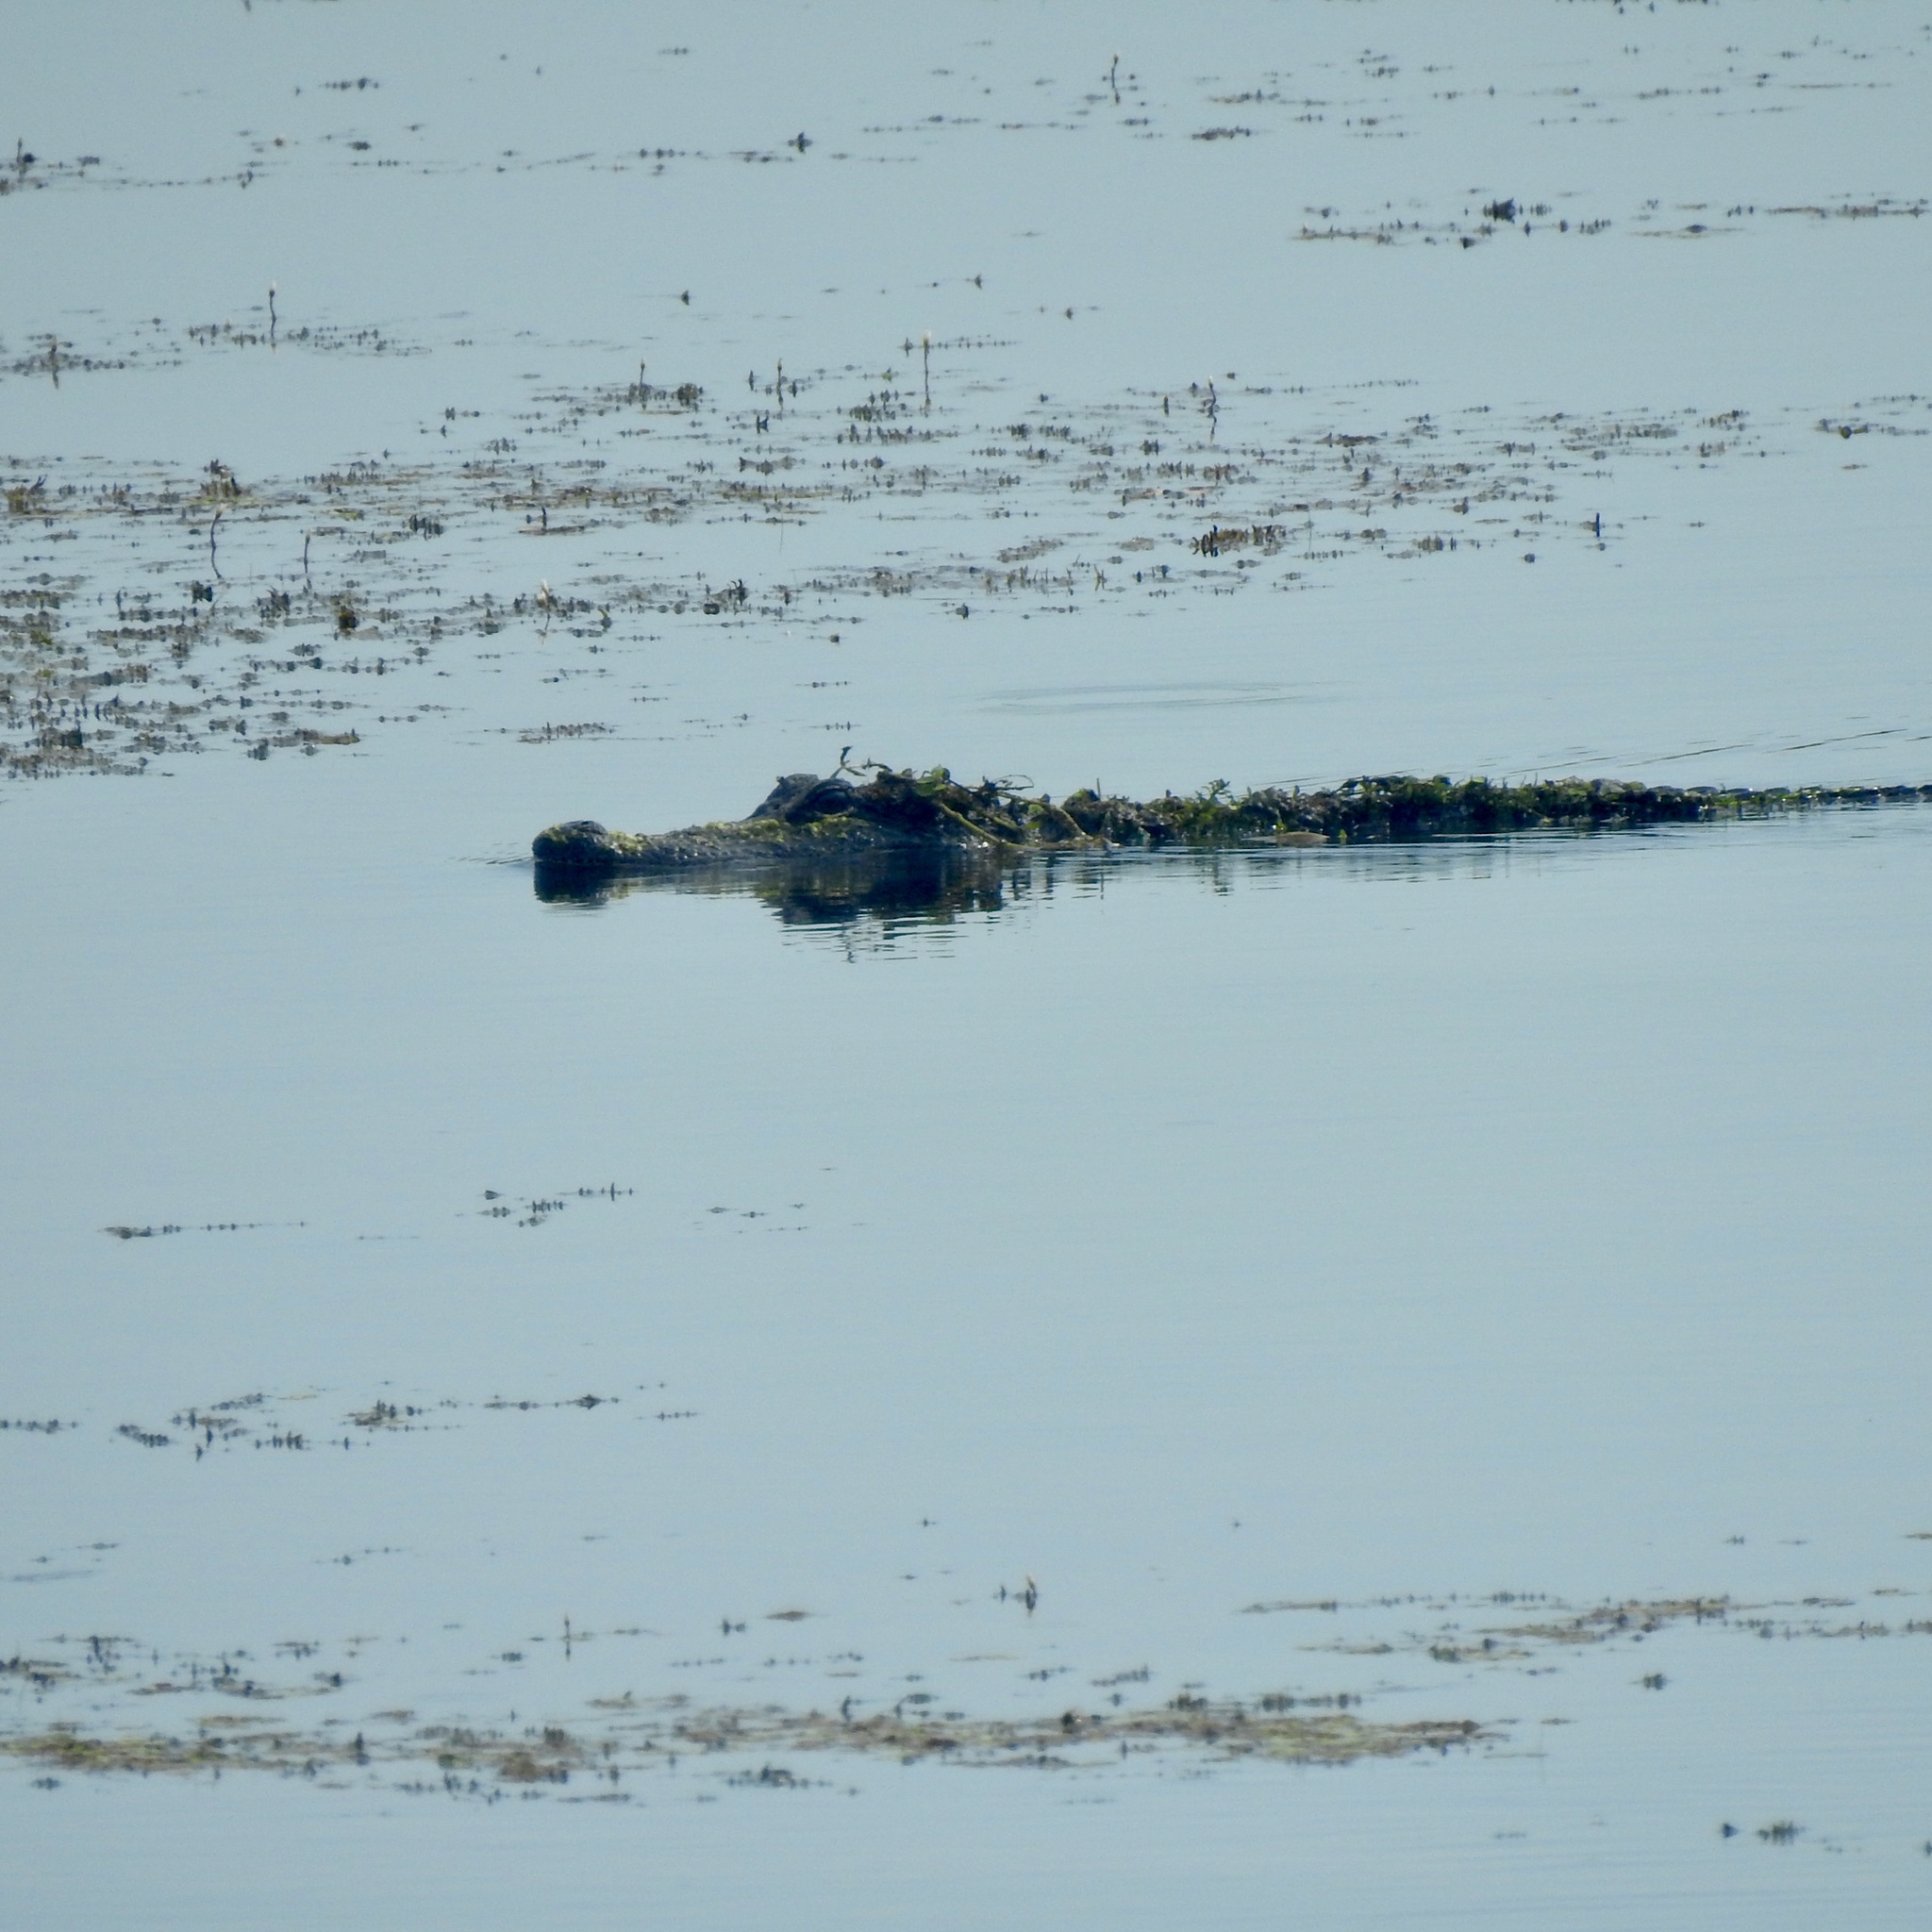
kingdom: Animalia
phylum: Chordata
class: Crocodylia
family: Alligatoridae
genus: Alligator
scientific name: Alligator mississippiensis
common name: American alligator
